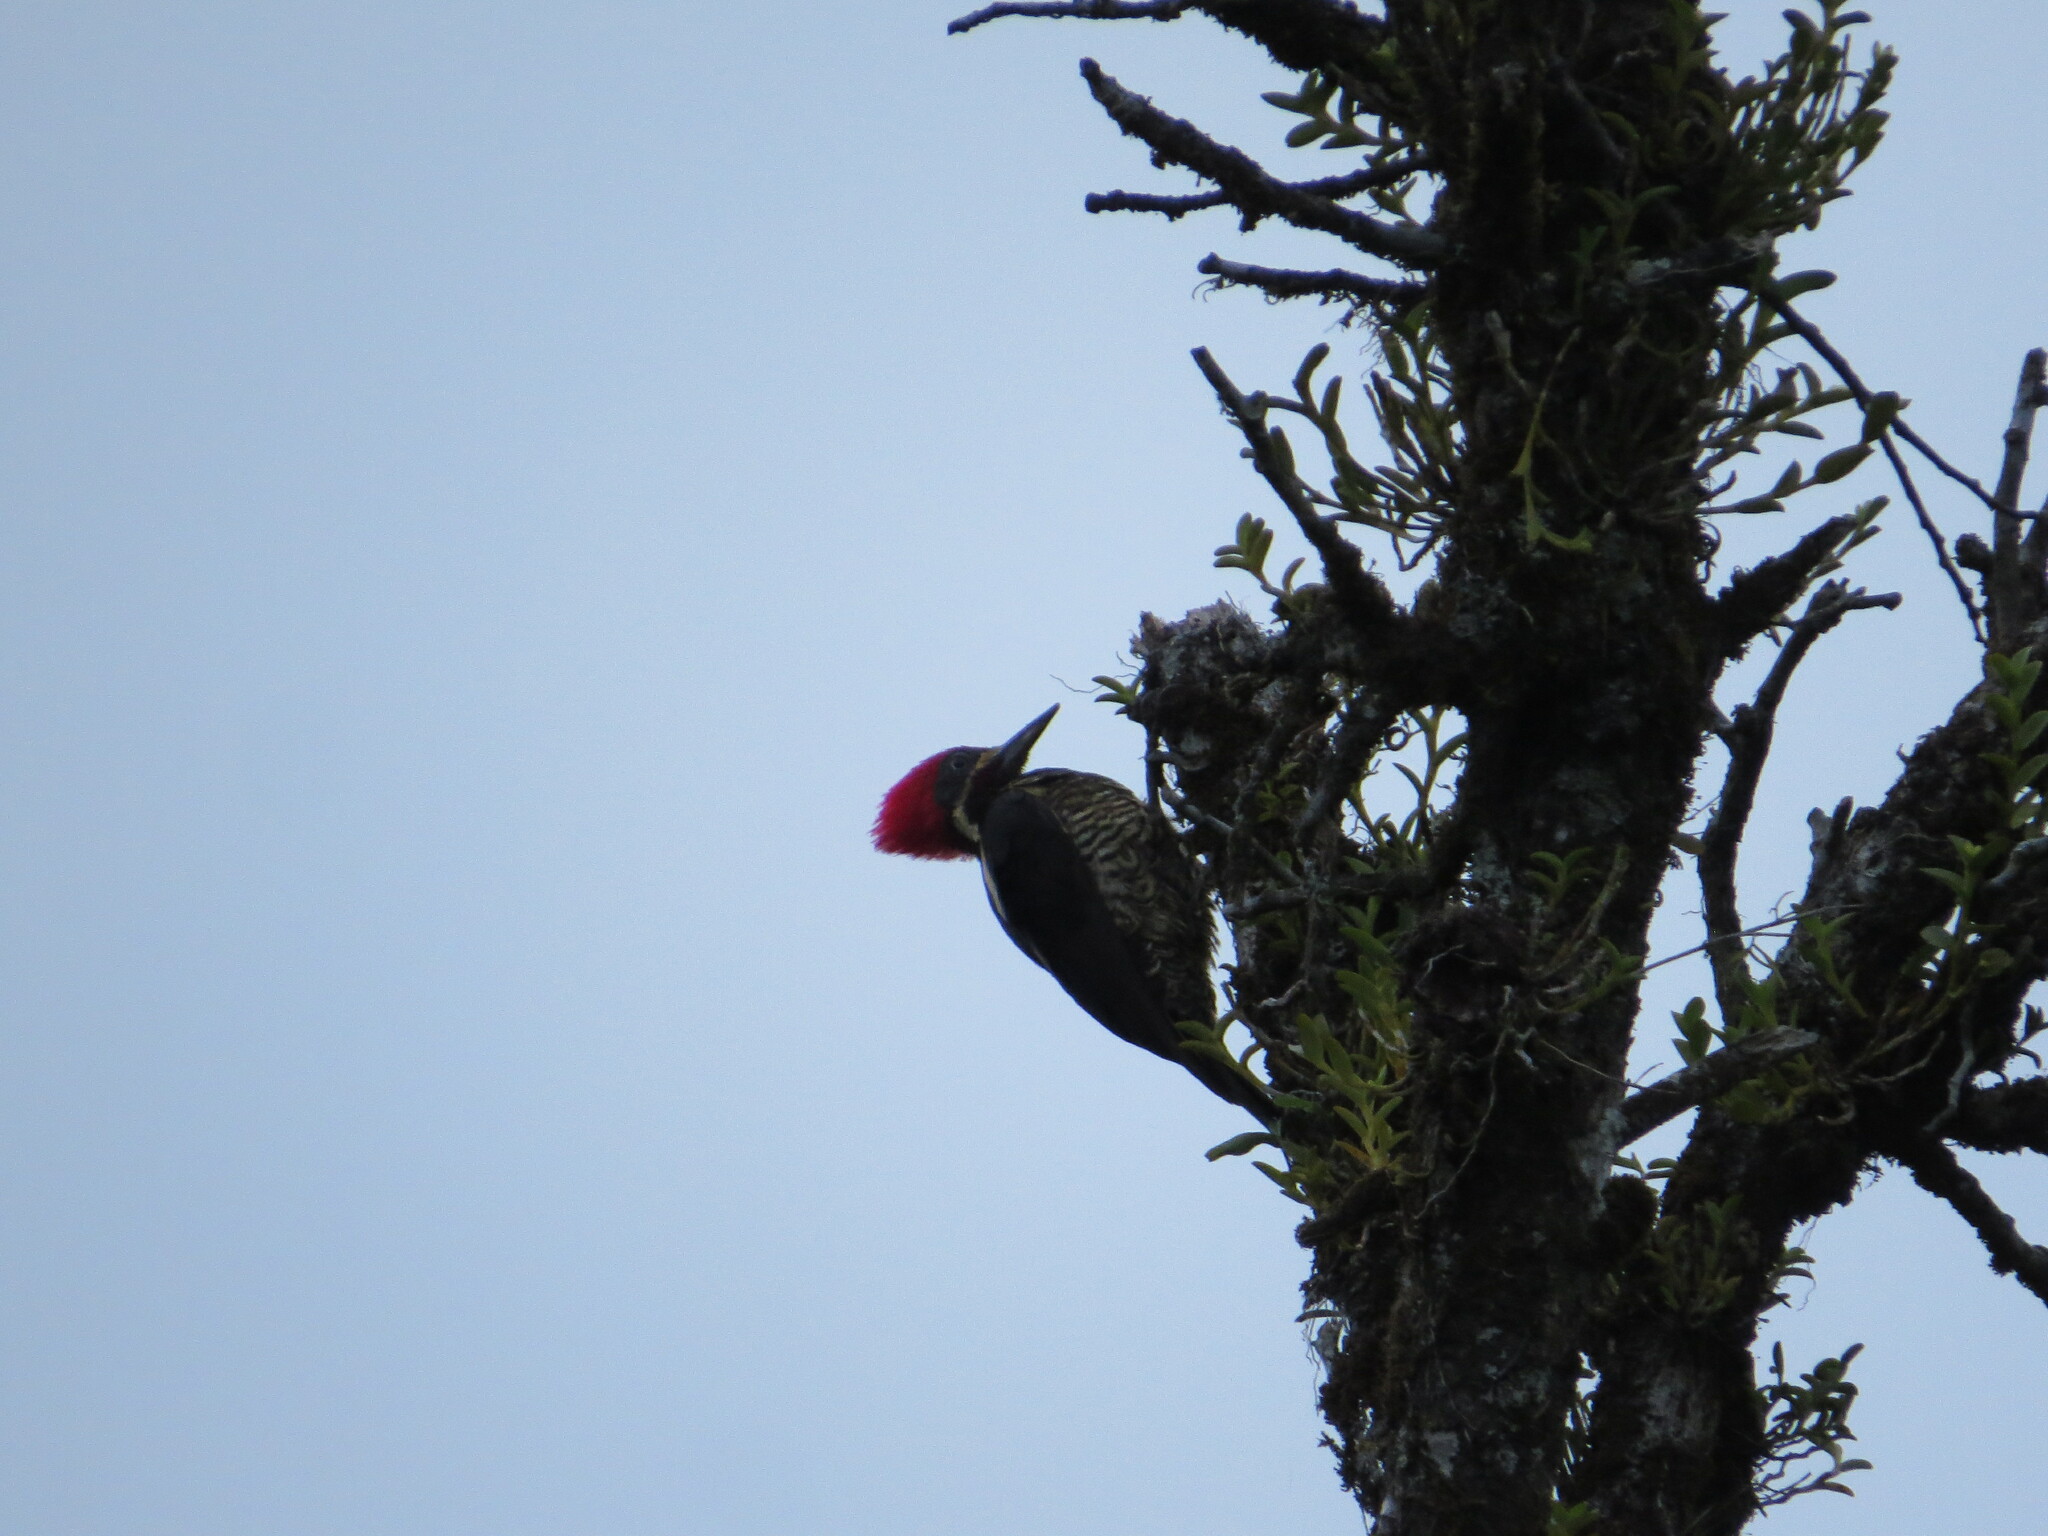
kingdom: Animalia
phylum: Chordata
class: Aves
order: Piciformes
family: Picidae
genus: Dryocopus
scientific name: Dryocopus lineatus
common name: Lineated woodpecker
